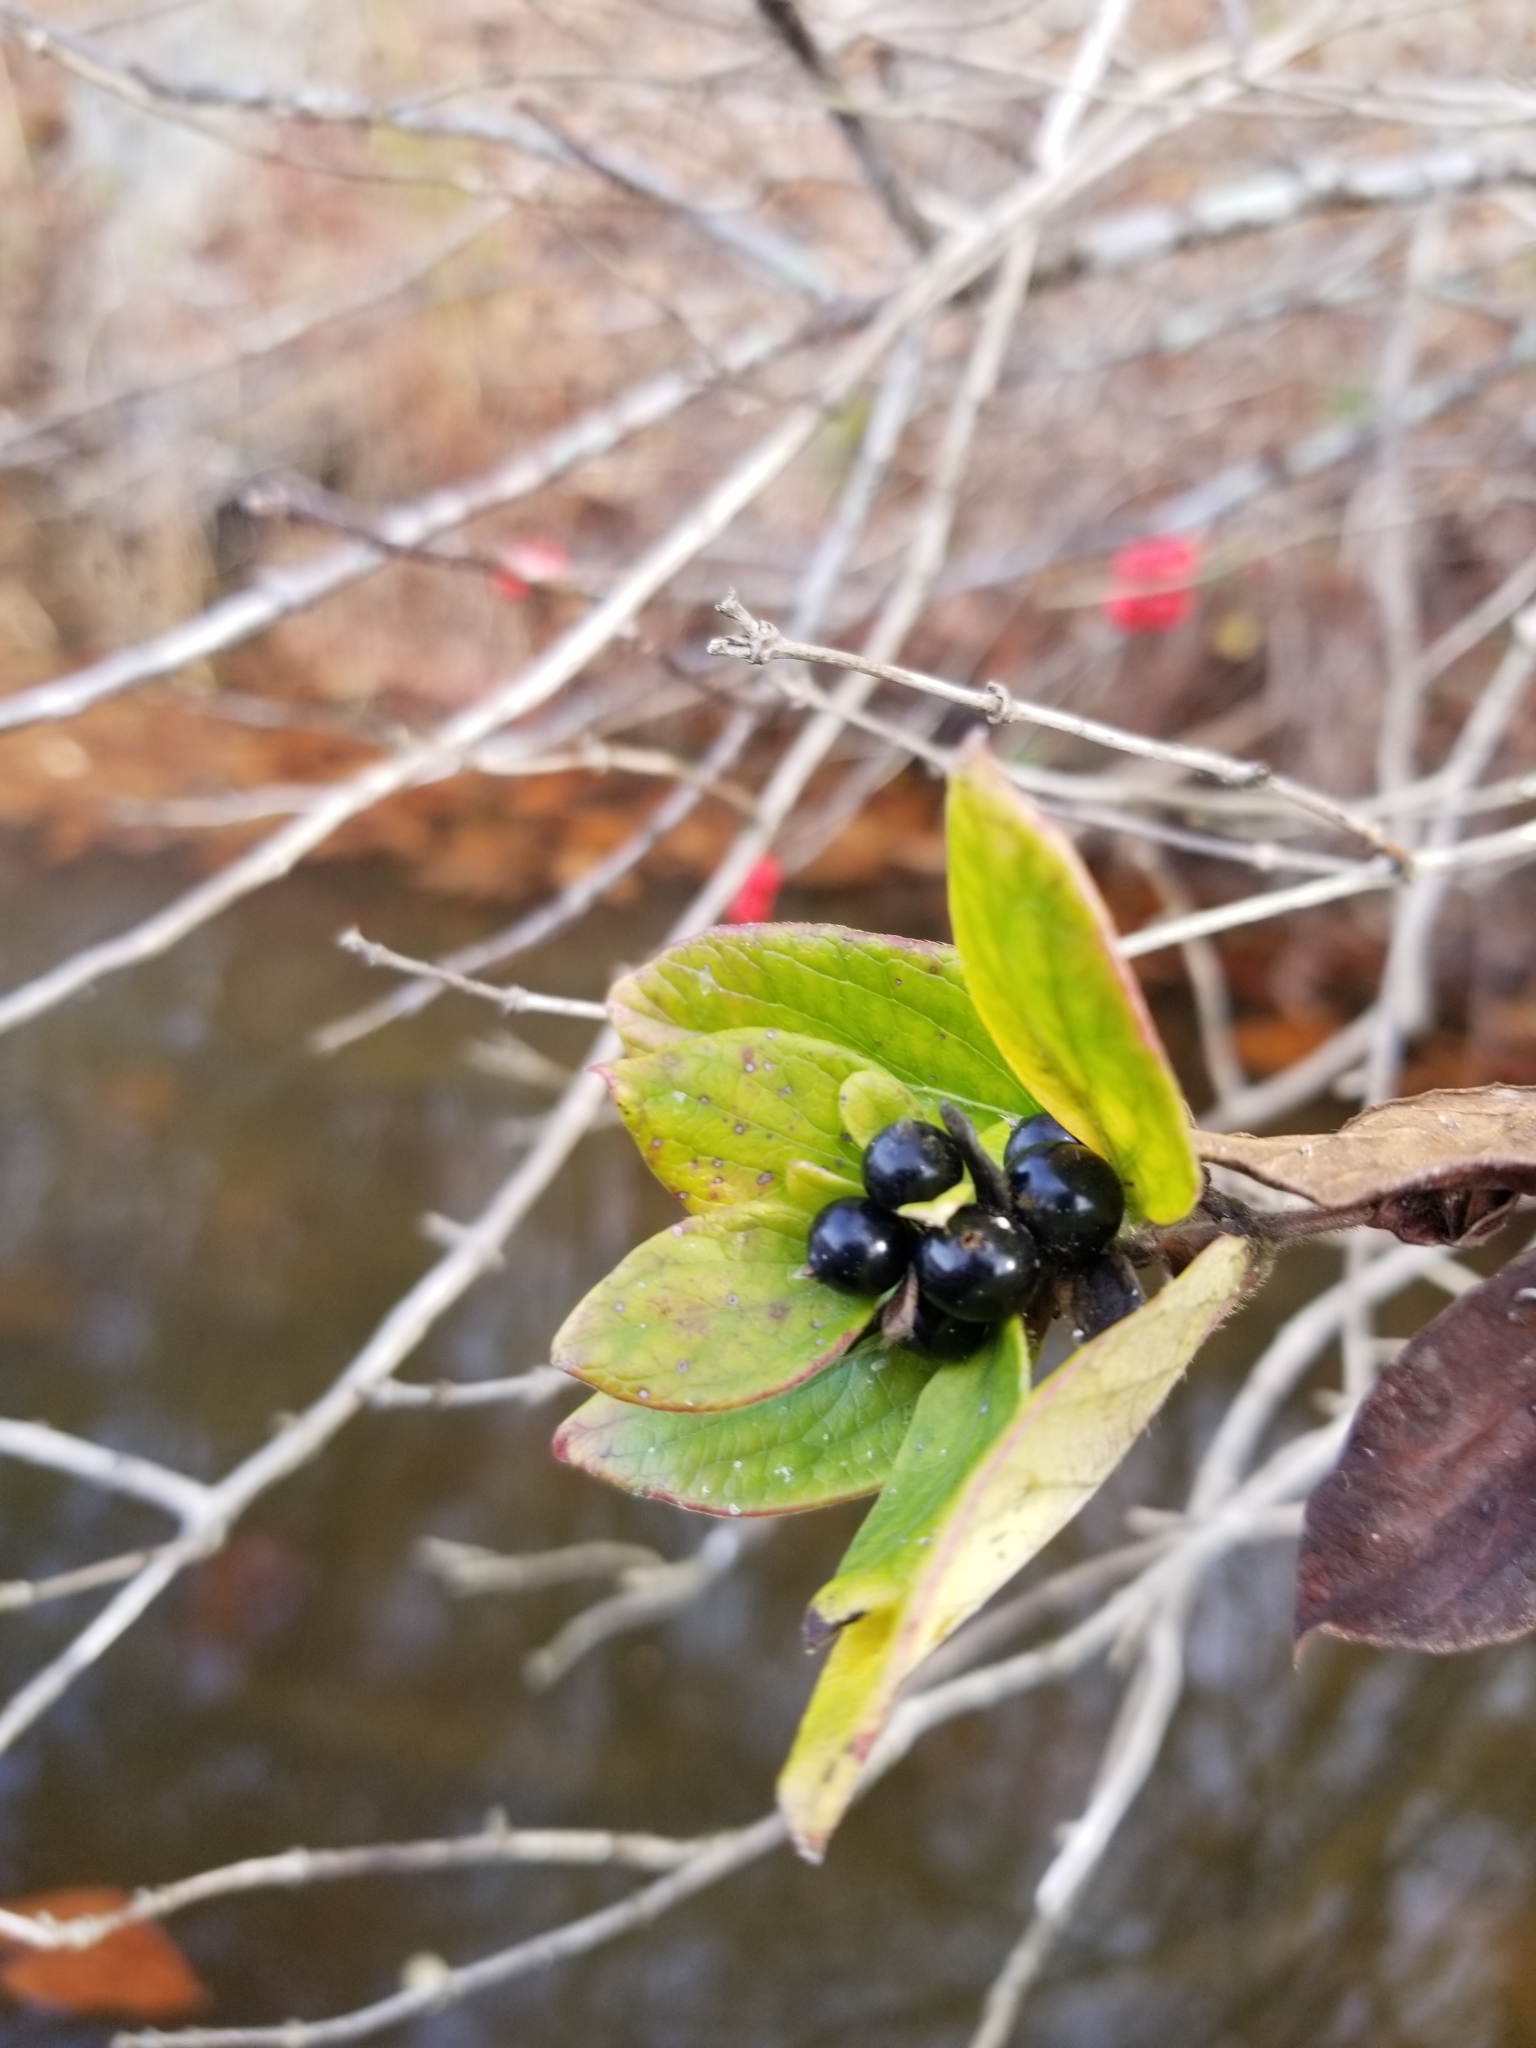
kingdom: Plantae
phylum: Tracheophyta
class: Magnoliopsida
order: Dipsacales
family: Caprifoliaceae
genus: Lonicera
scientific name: Lonicera japonica
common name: Japanese honeysuckle
